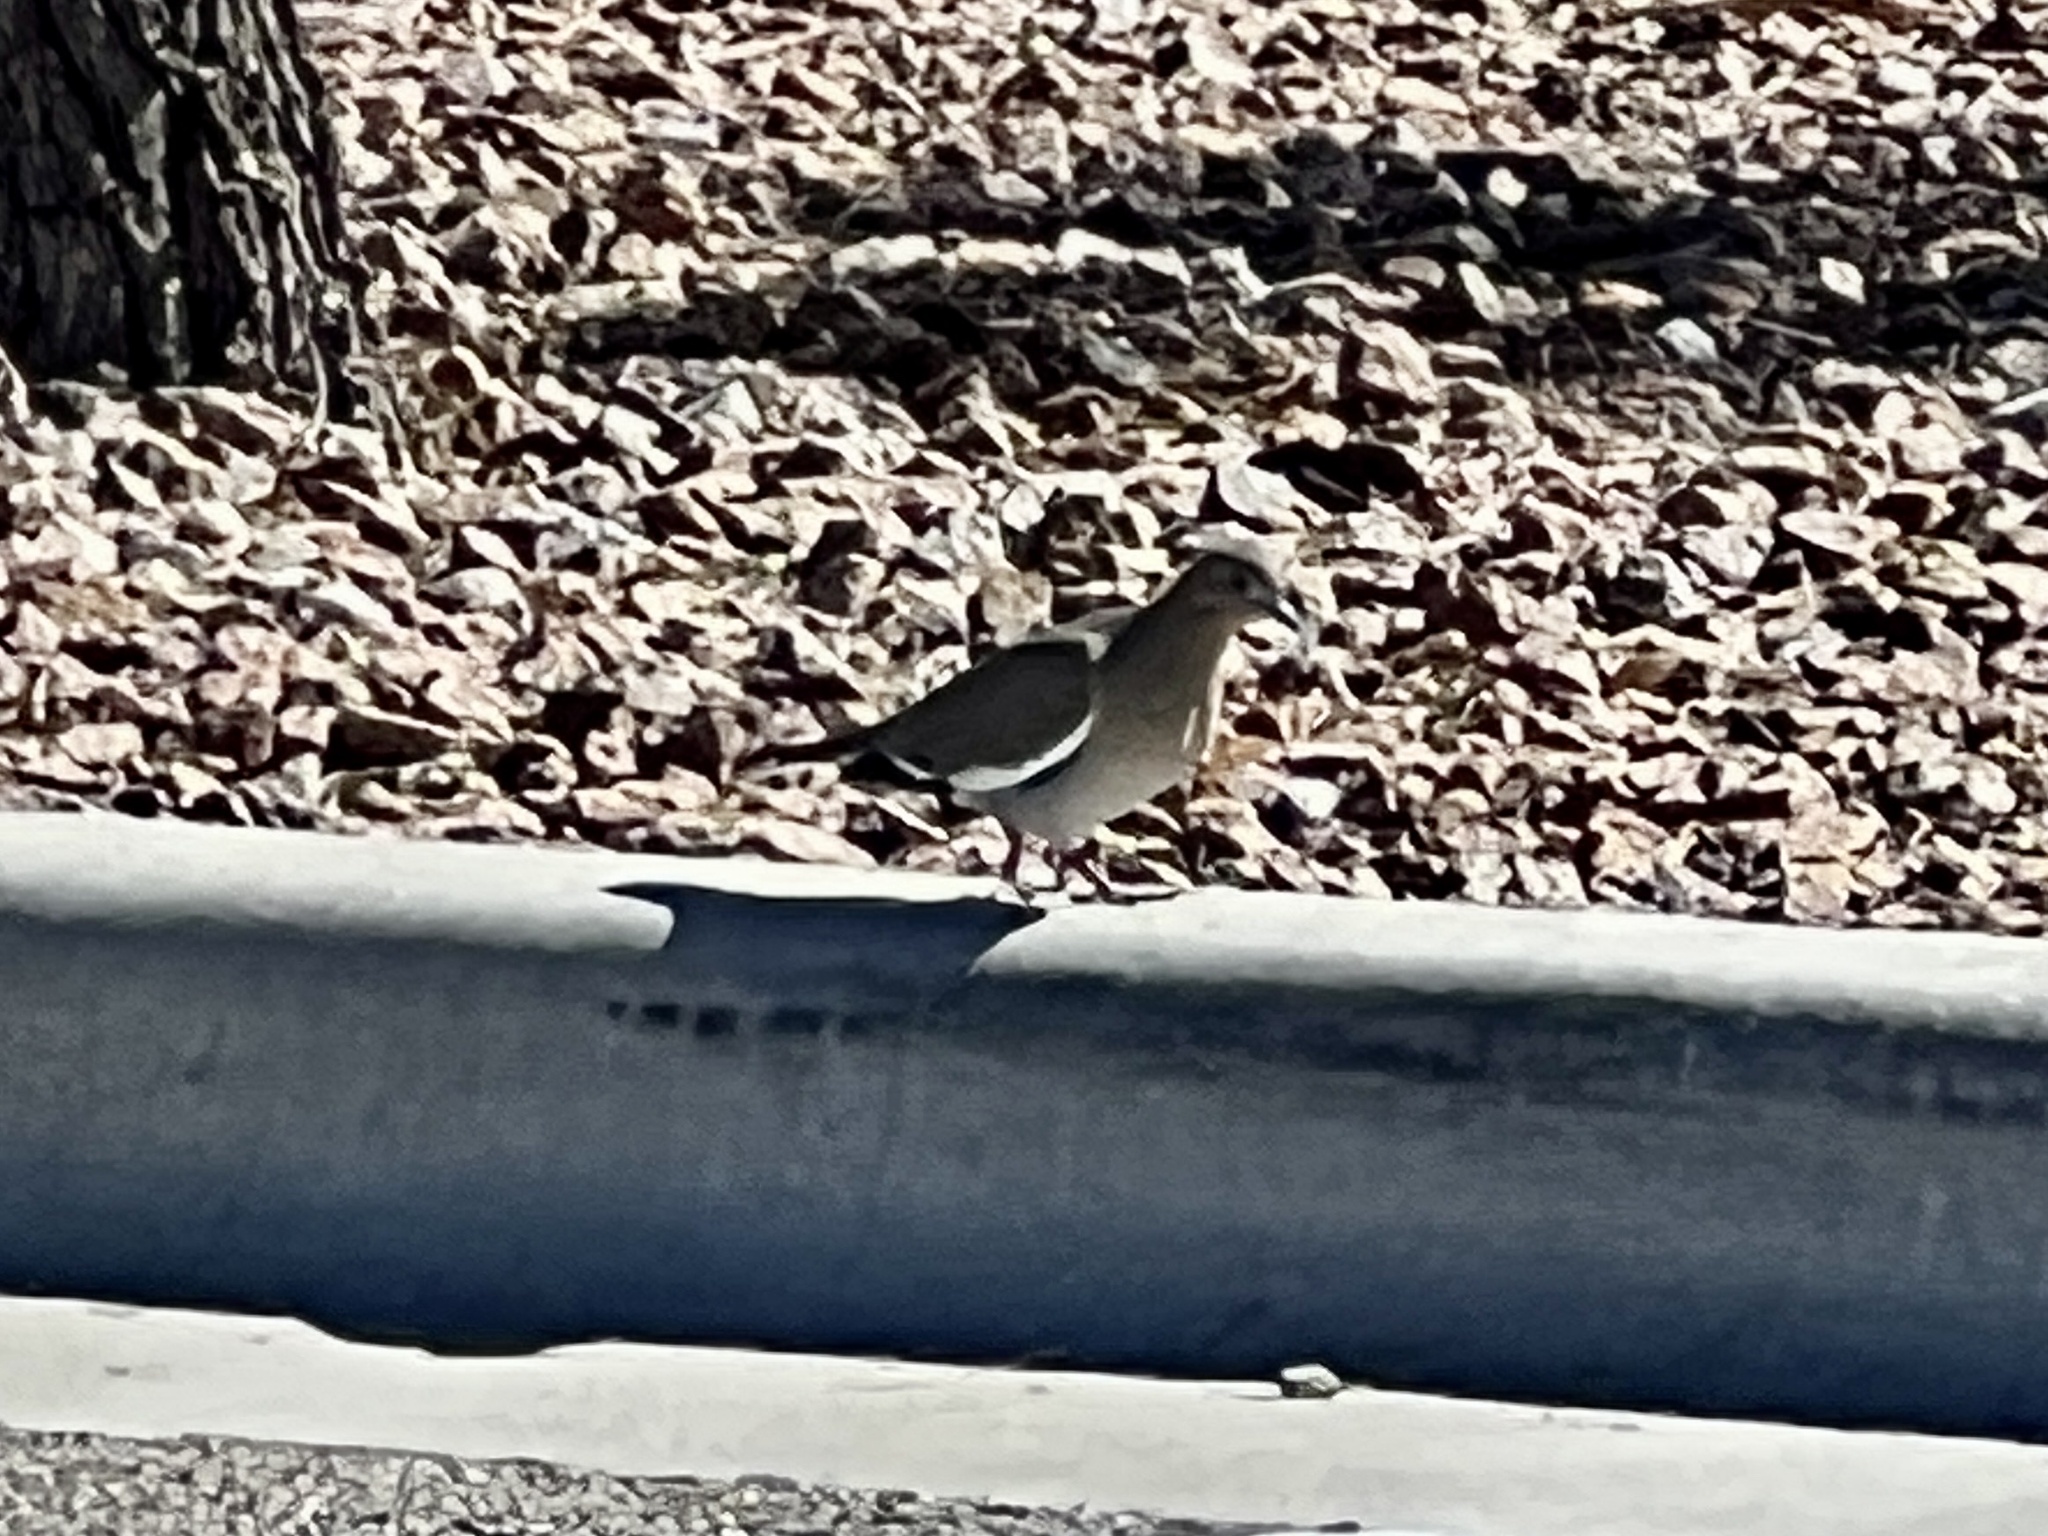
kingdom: Animalia
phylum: Chordata
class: Aves
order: Columbiformes
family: Columbidae
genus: Zenaida
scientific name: Zenaida asiatica
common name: White-winged dove
